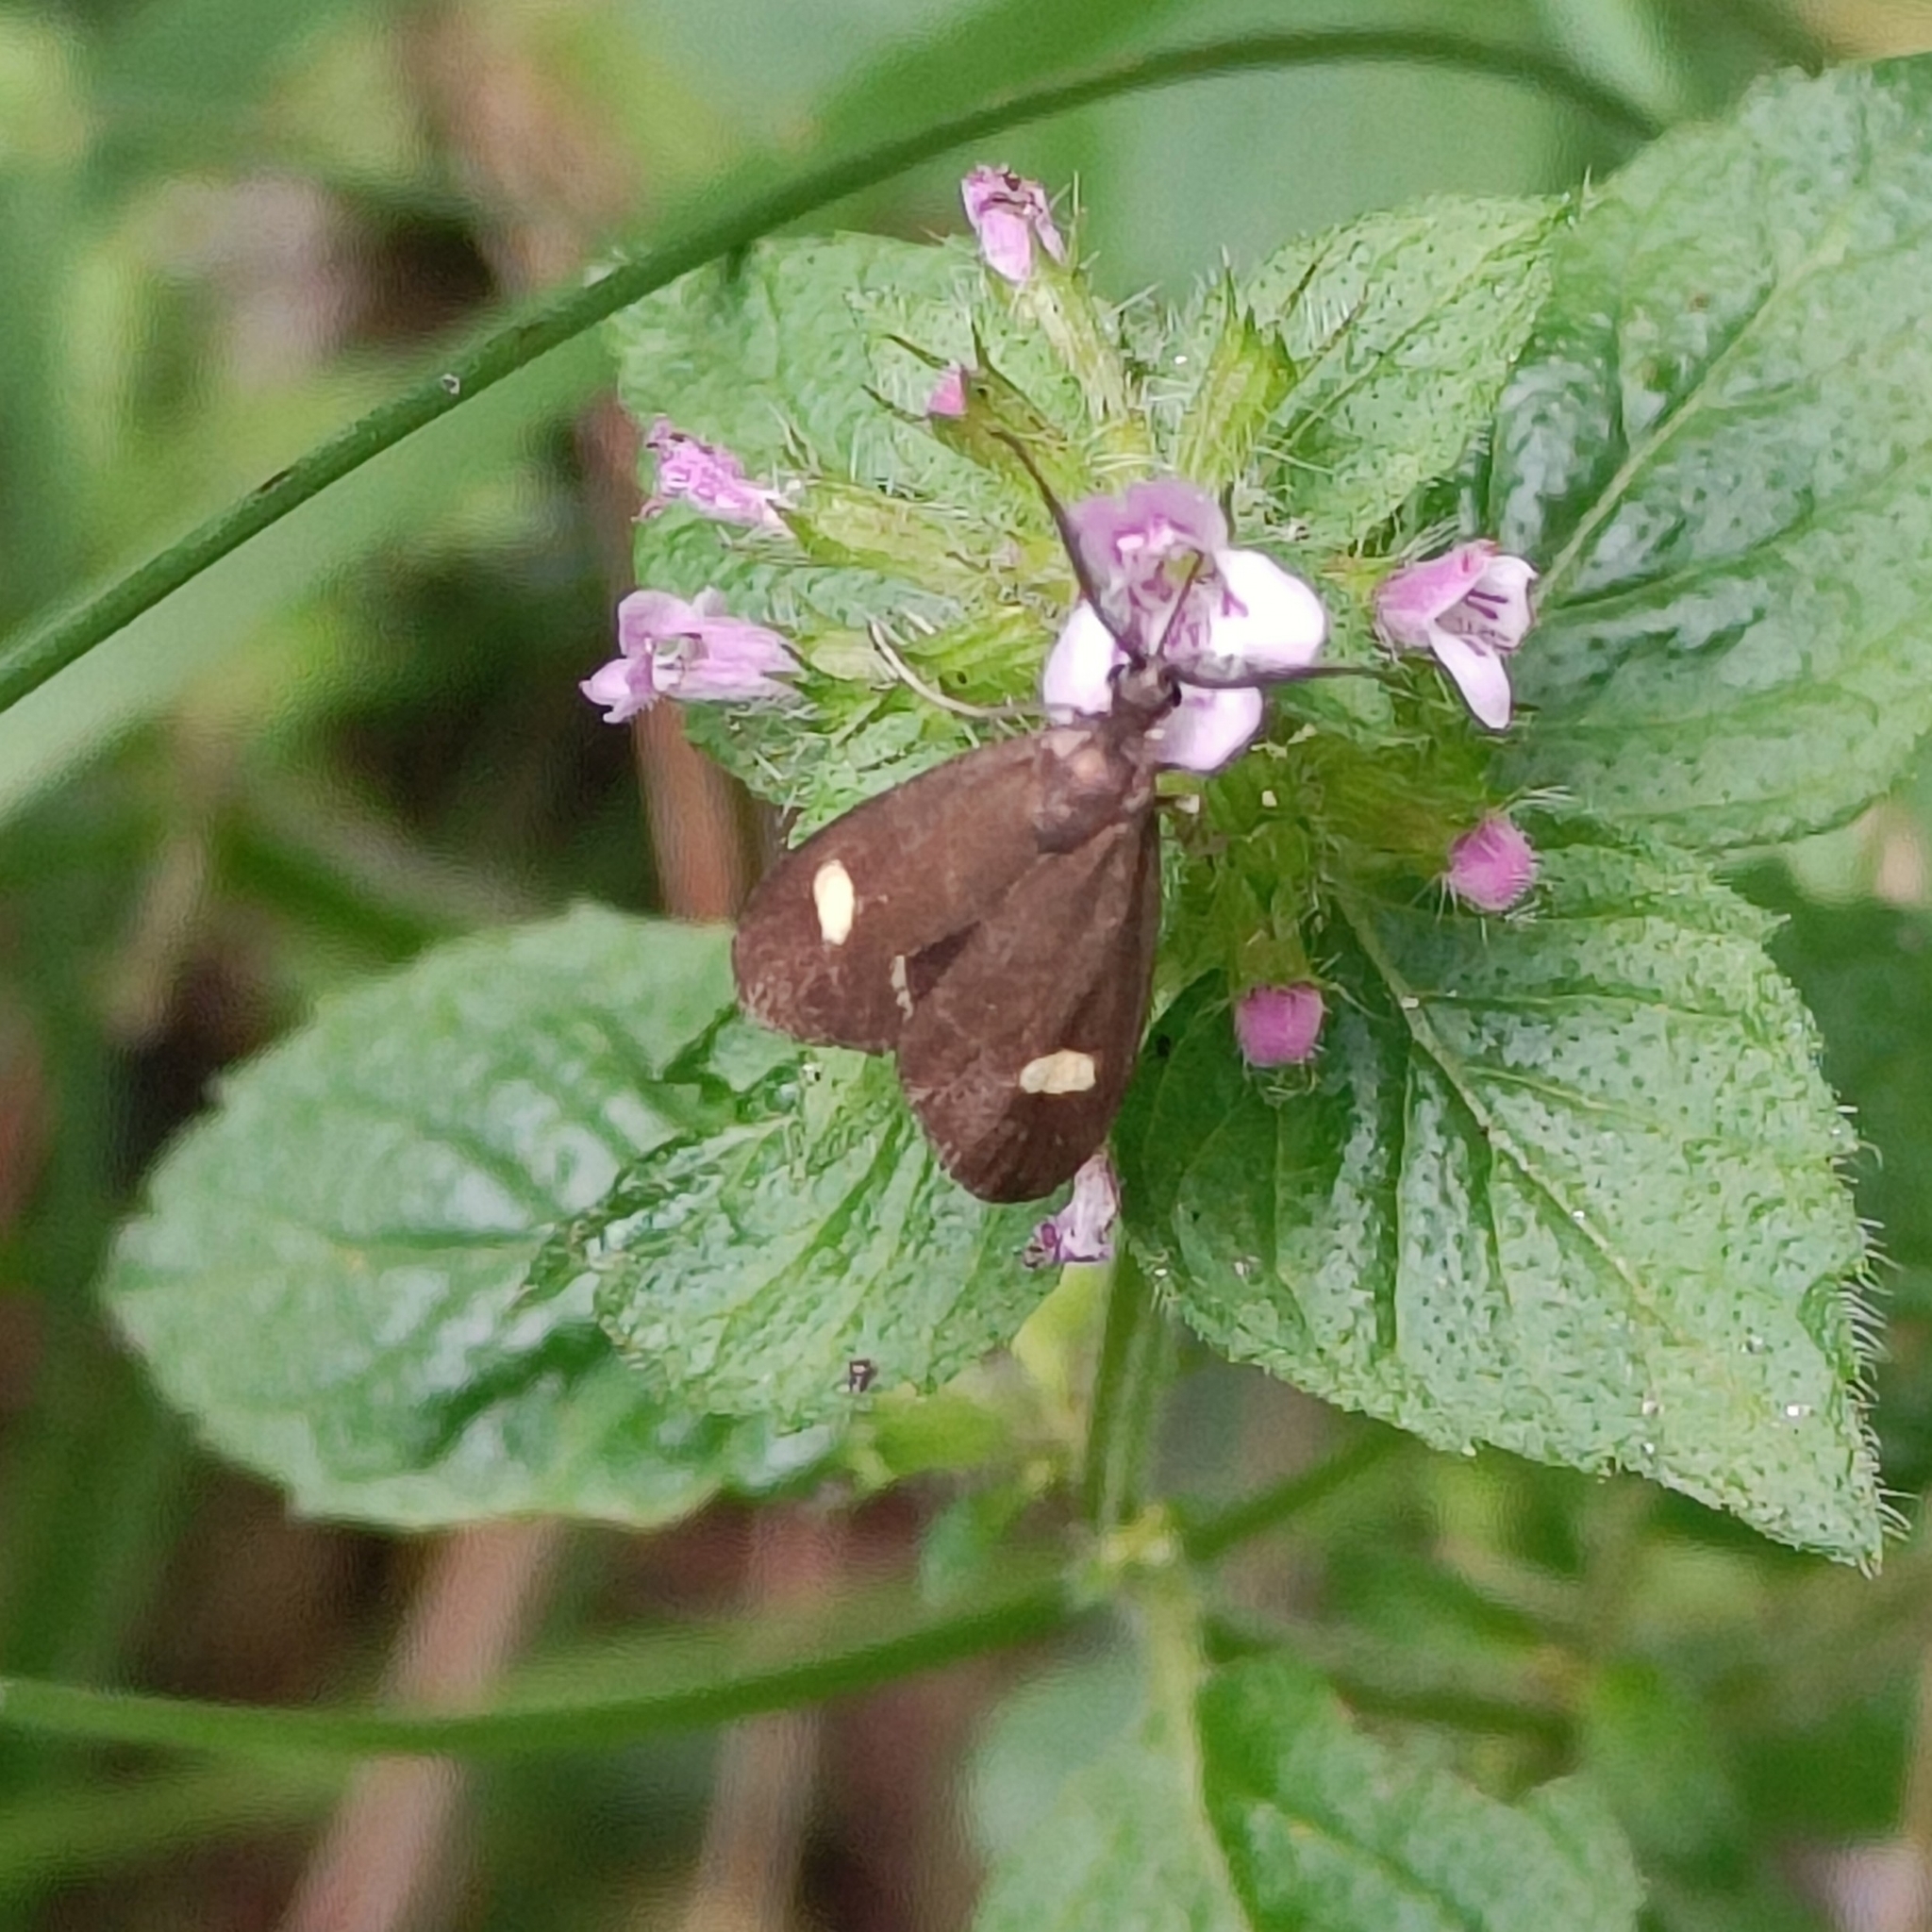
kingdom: Animalia
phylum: Arthropoda
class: Insecta
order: Lepidoptera
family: Zygaenidae
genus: Artona
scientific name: Artona quadrimaculata
